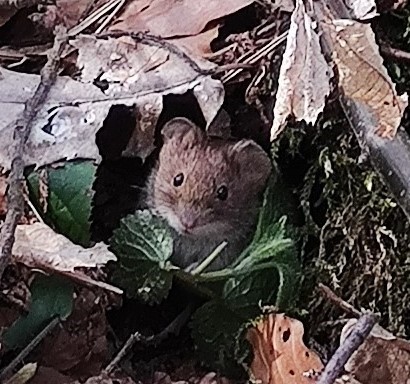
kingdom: Animalia
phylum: Chordata
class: Mammalia
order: Rodentia
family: Cricetidae
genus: Myodes
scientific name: Myodes glareolus
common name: Bank vole
